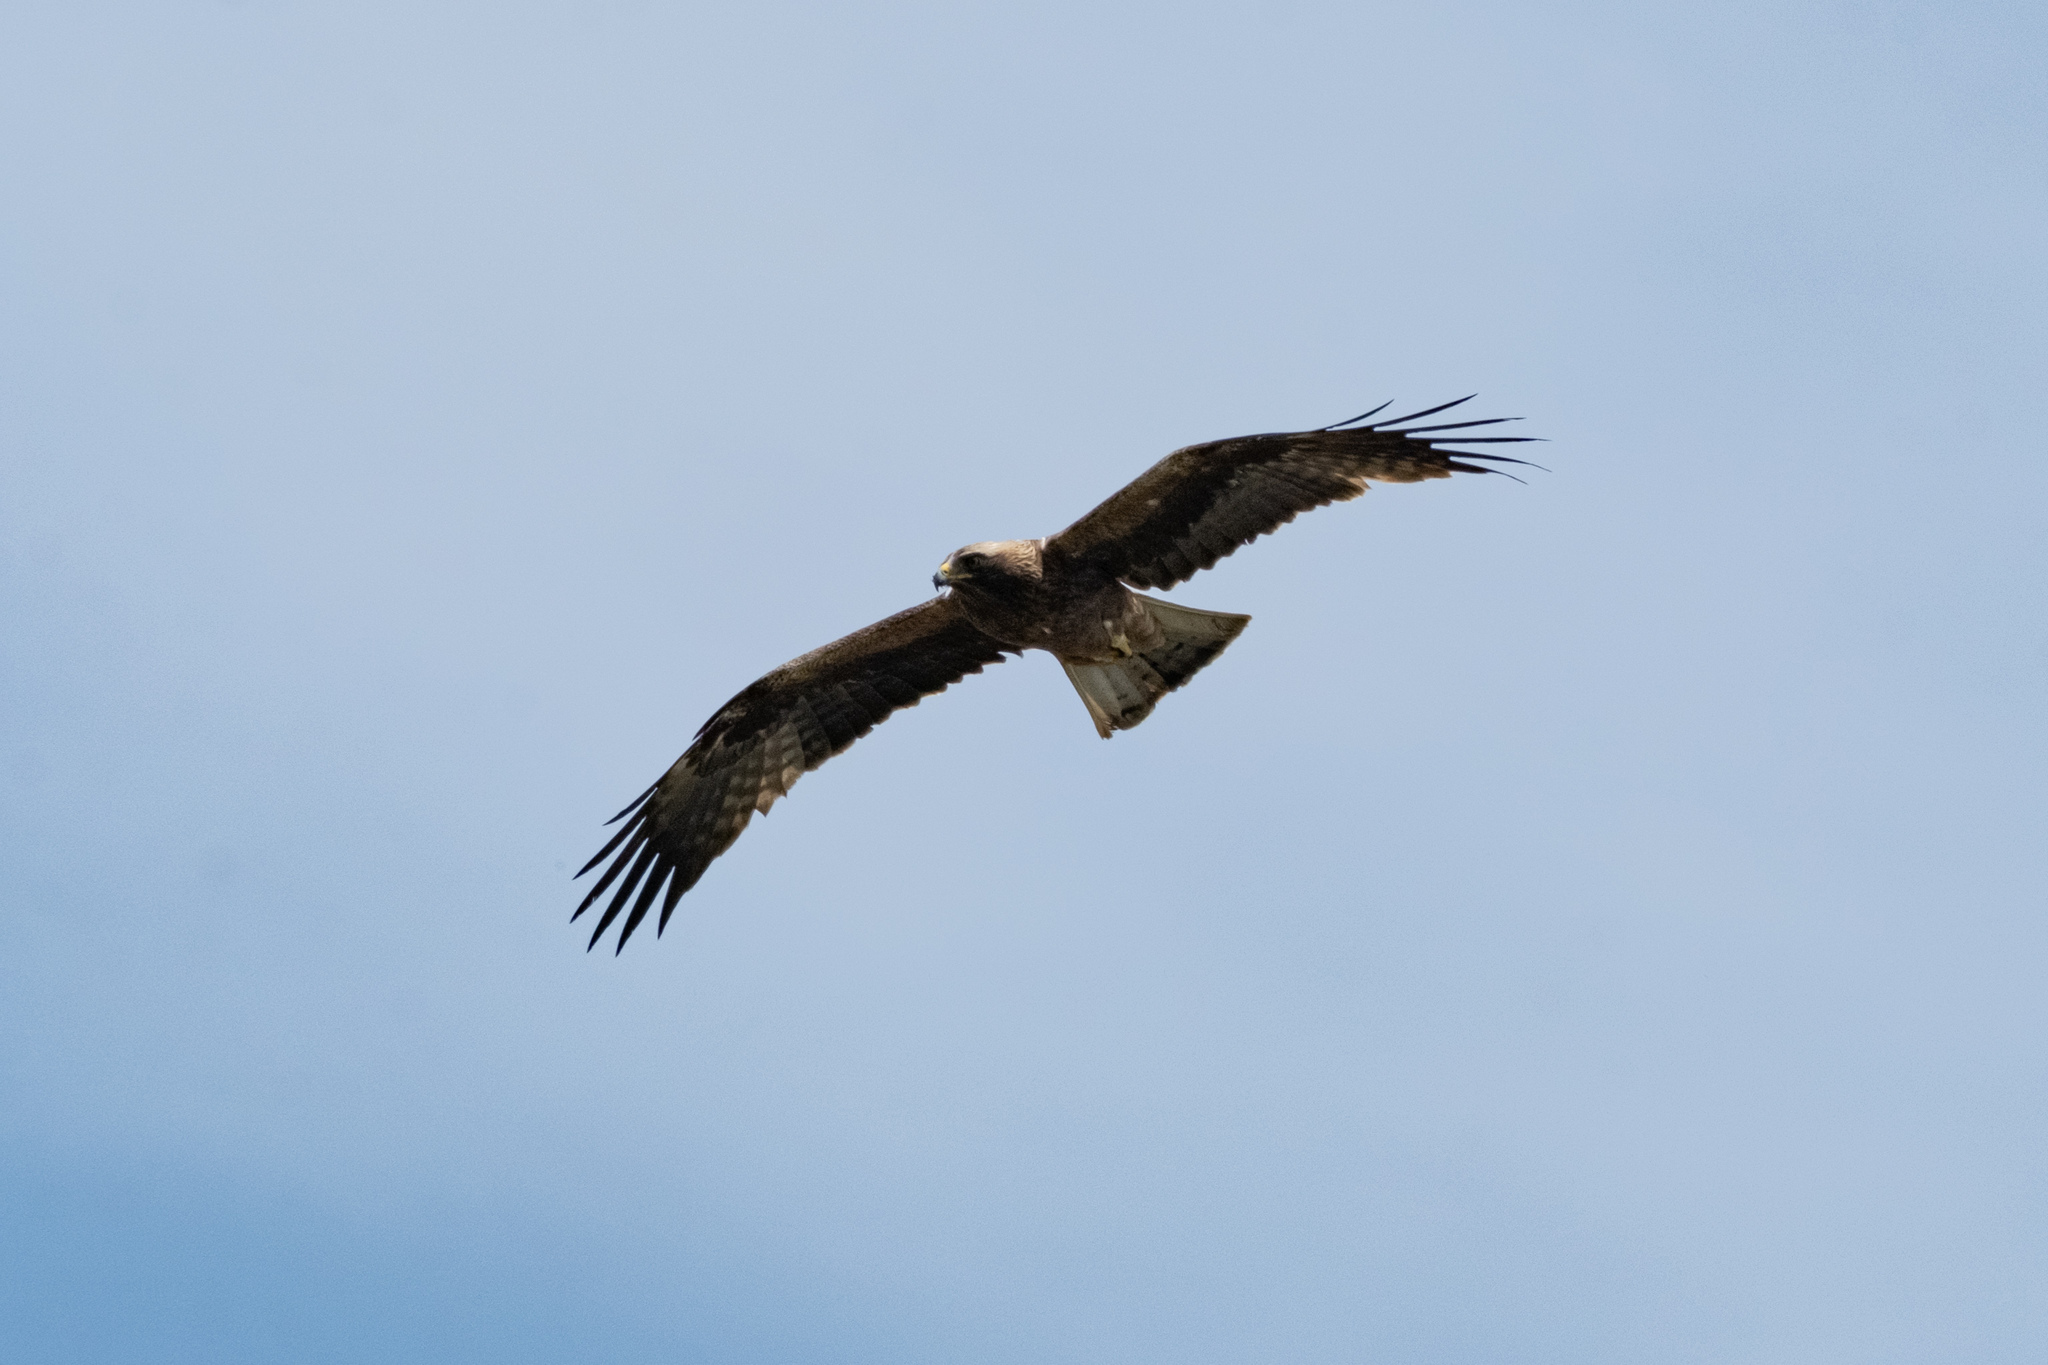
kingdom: Animalia
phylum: Chordata
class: Aves
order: Accipitriformes
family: Accipitridae
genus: Hieraaetus
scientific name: Hieraaetus pennatus
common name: Booted eagle
